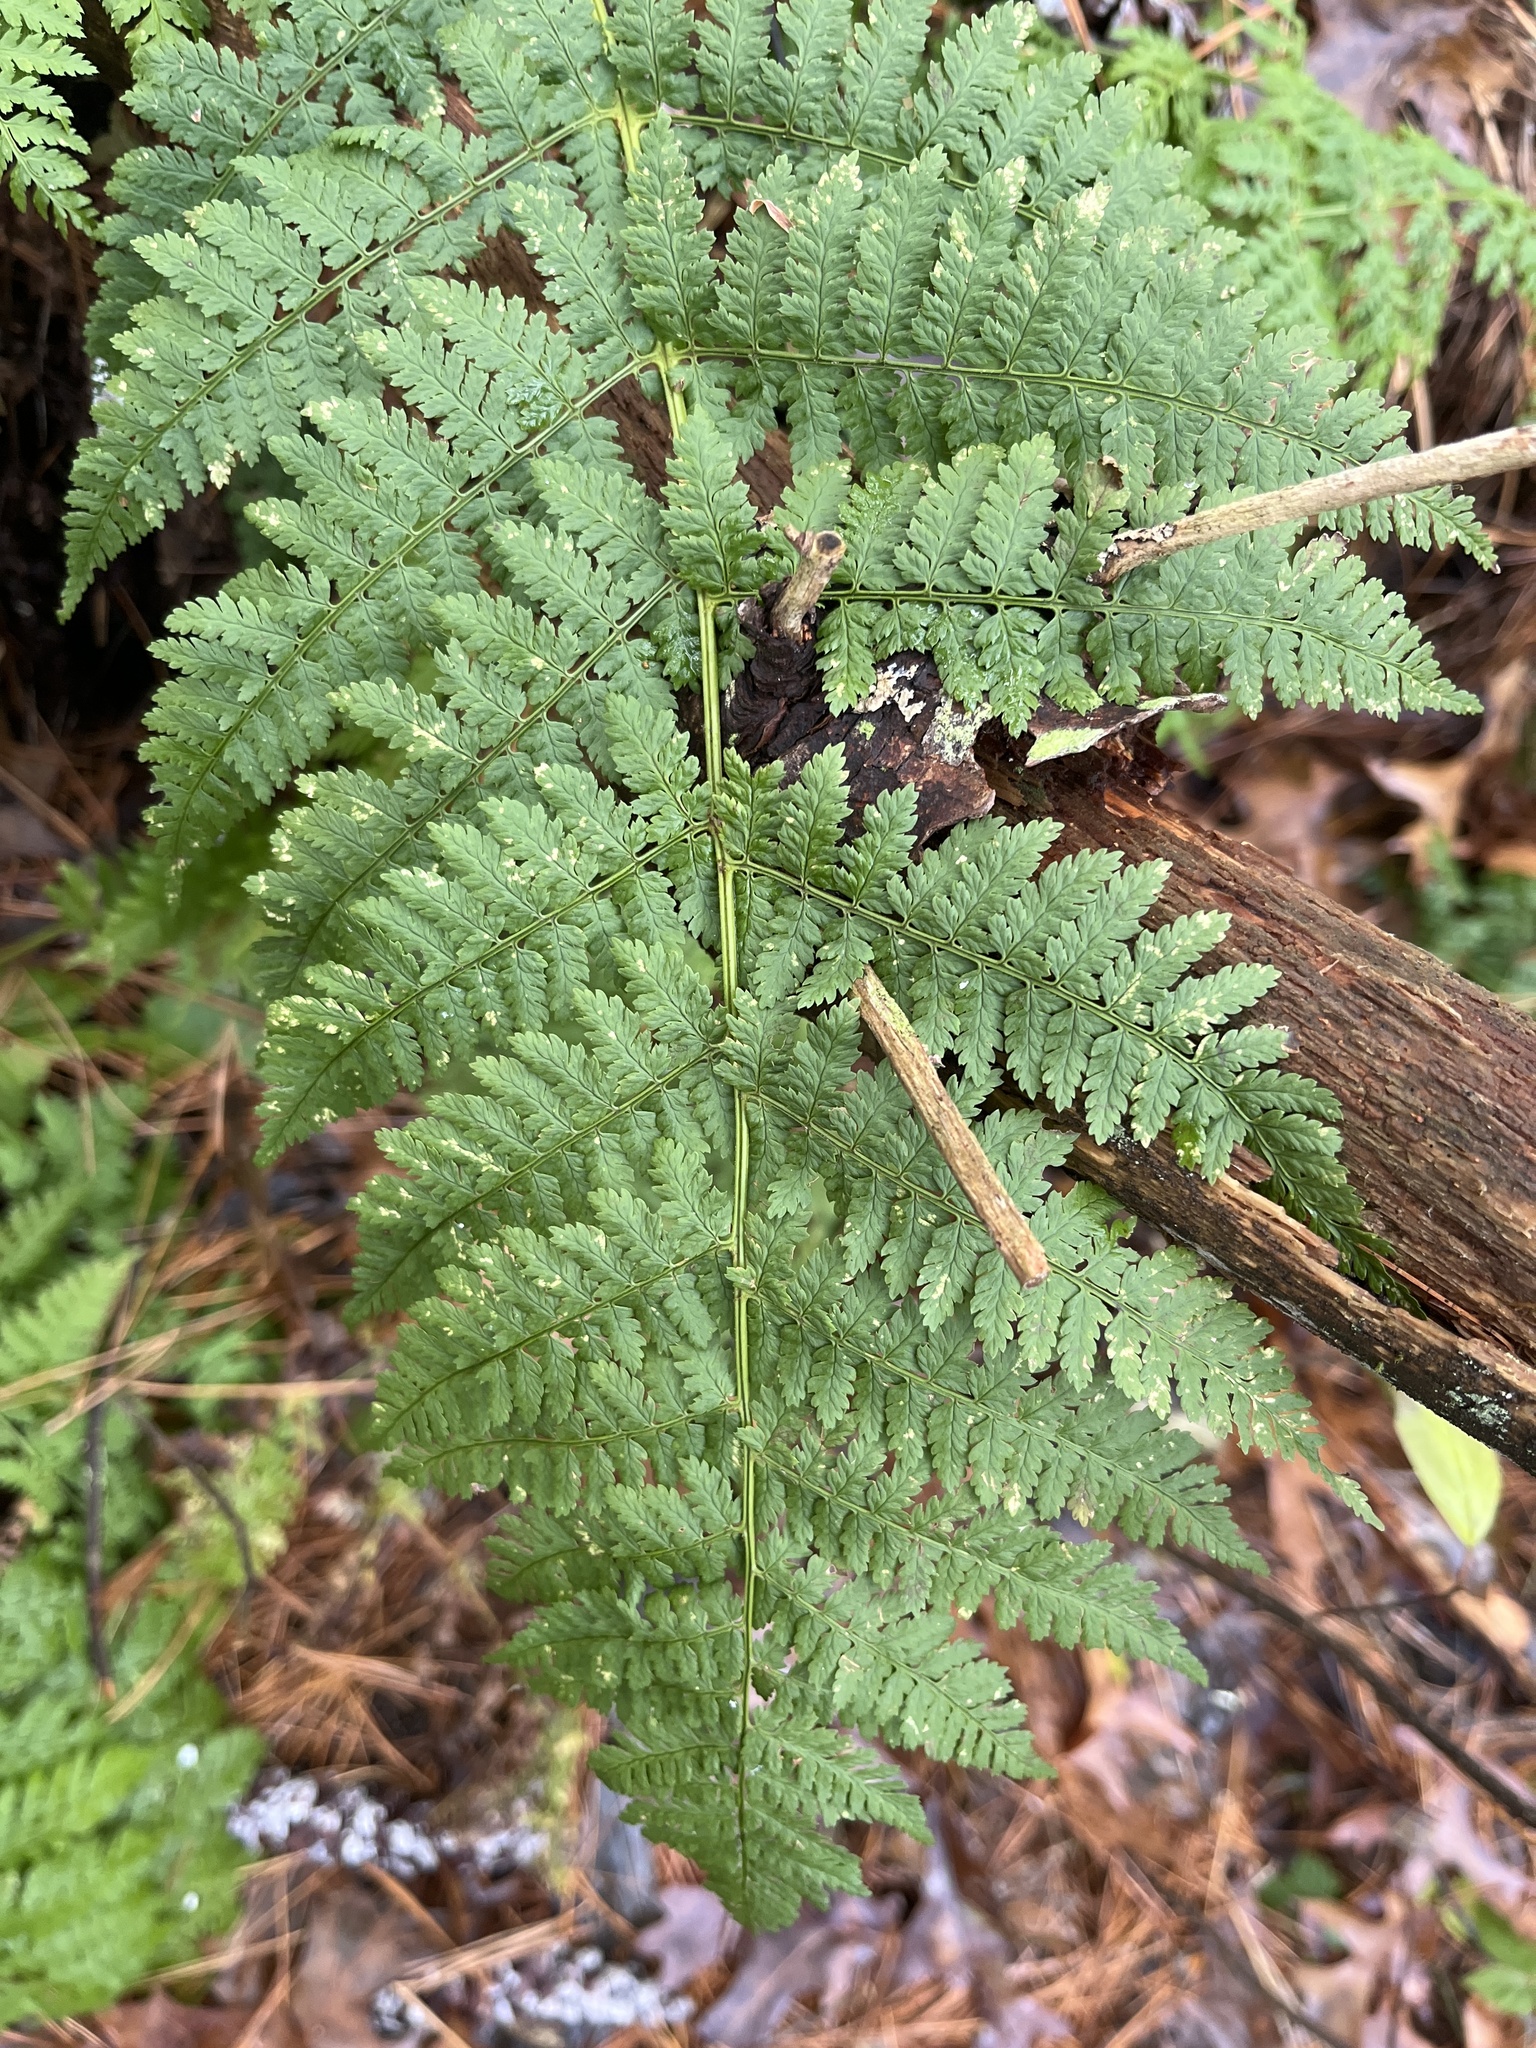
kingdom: Plantae
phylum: Tracheophyta
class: Polypodiopsida
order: Polypodiales
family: Dryopteridaceae
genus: Dryopteris
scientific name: Dryopteris intermedia
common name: Evergreen wood fern
